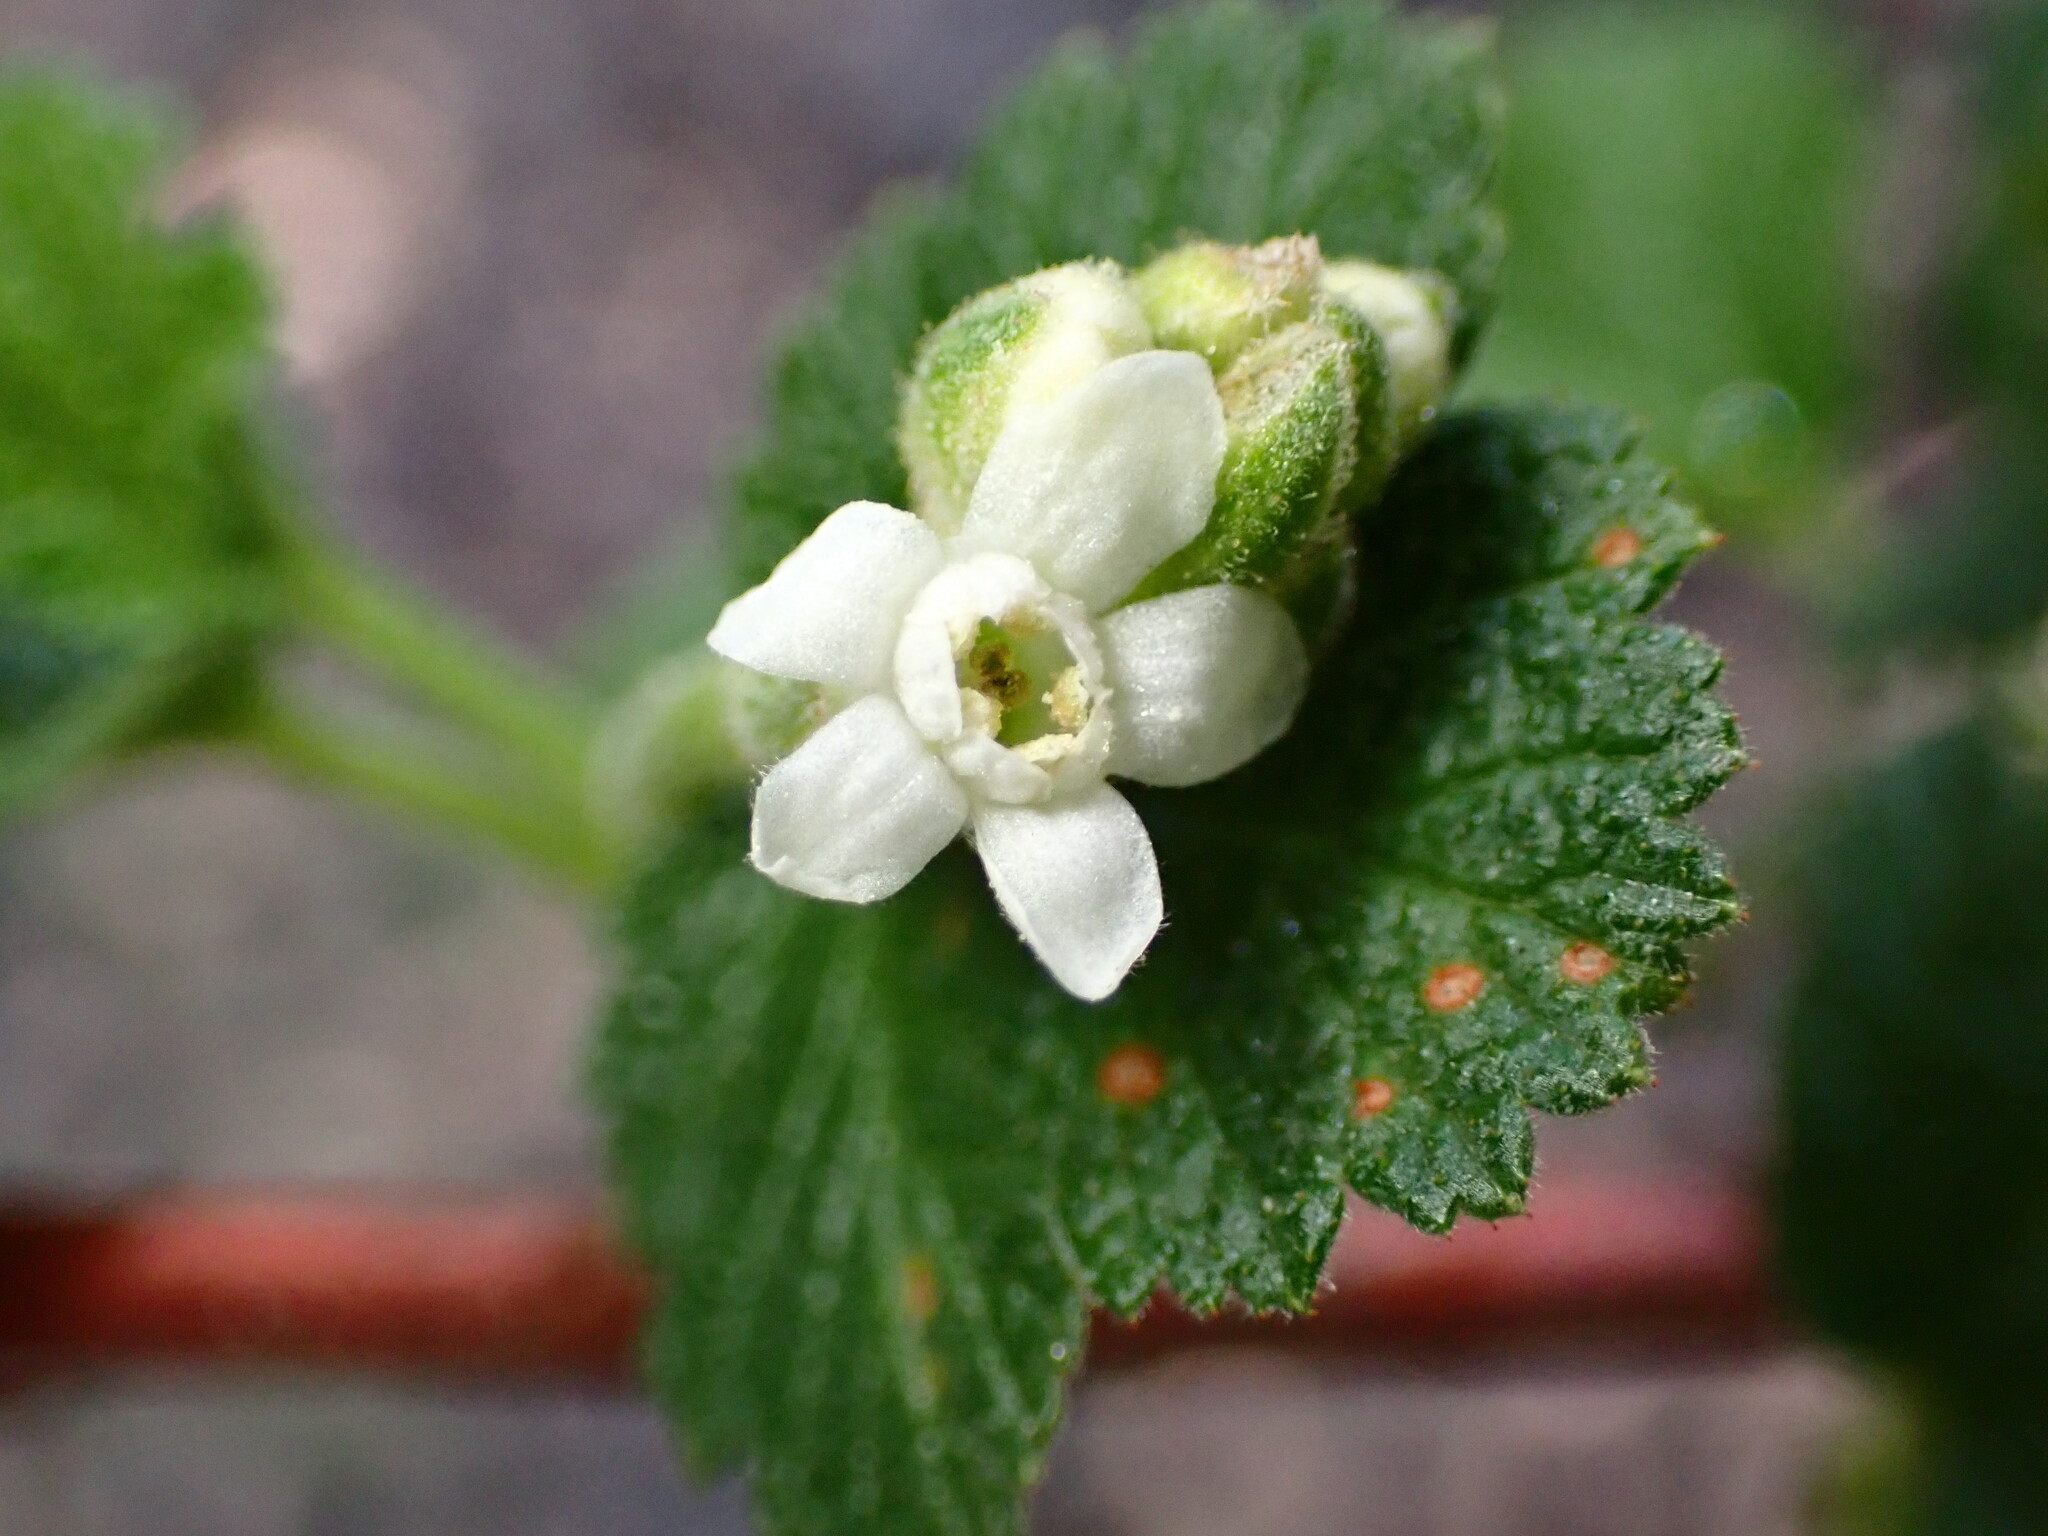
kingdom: Plantae
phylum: Tracheophyta
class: Magnoliopsida
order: Saxifragales
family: Grossulariaceae
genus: Ribes
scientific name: Ribes indecorum
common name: White-flower currant
